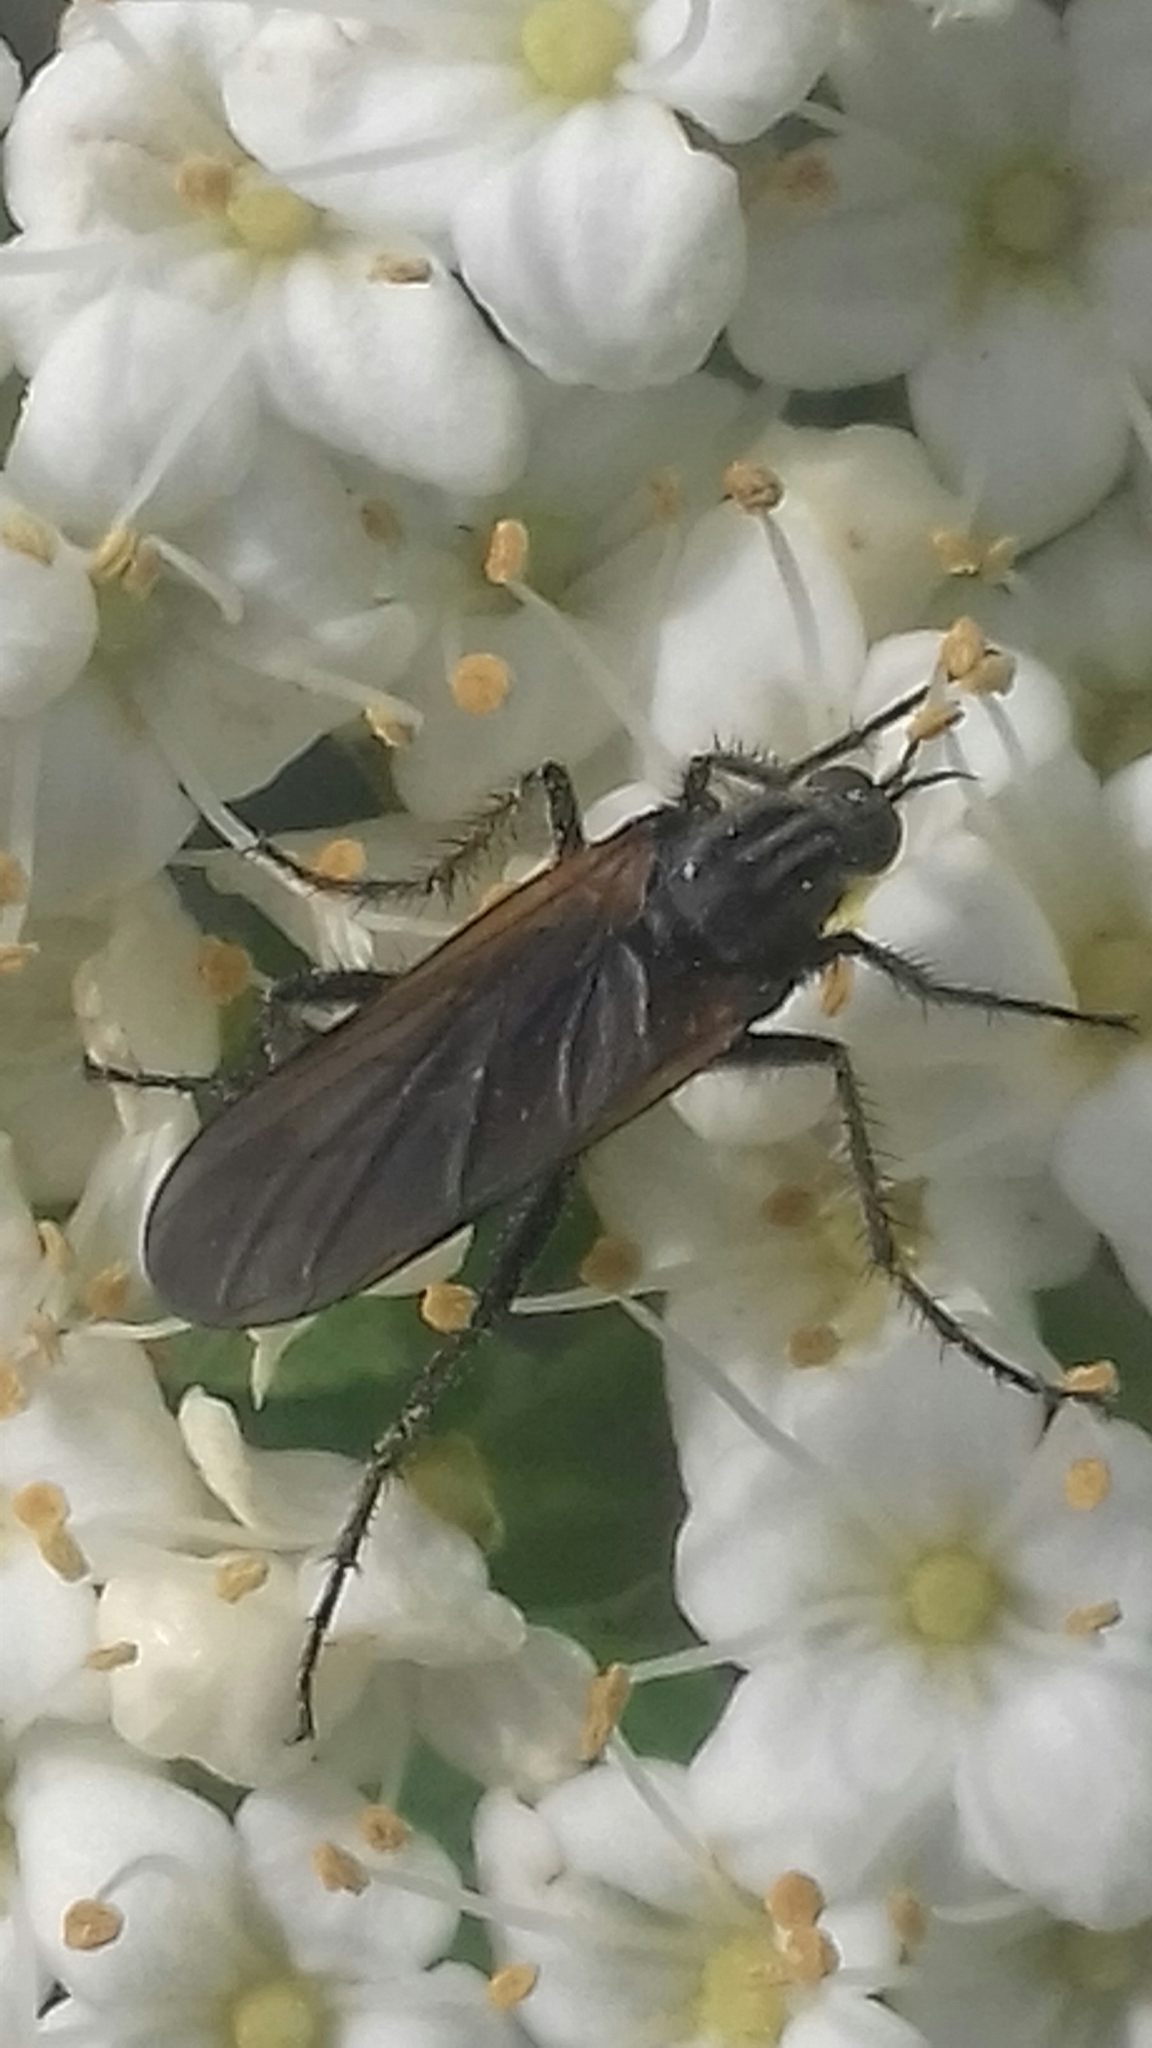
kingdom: Animalia
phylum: Arthropoda
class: Insecta
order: Diptera
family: Empididae
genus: Empis
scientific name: Empis tessellata
